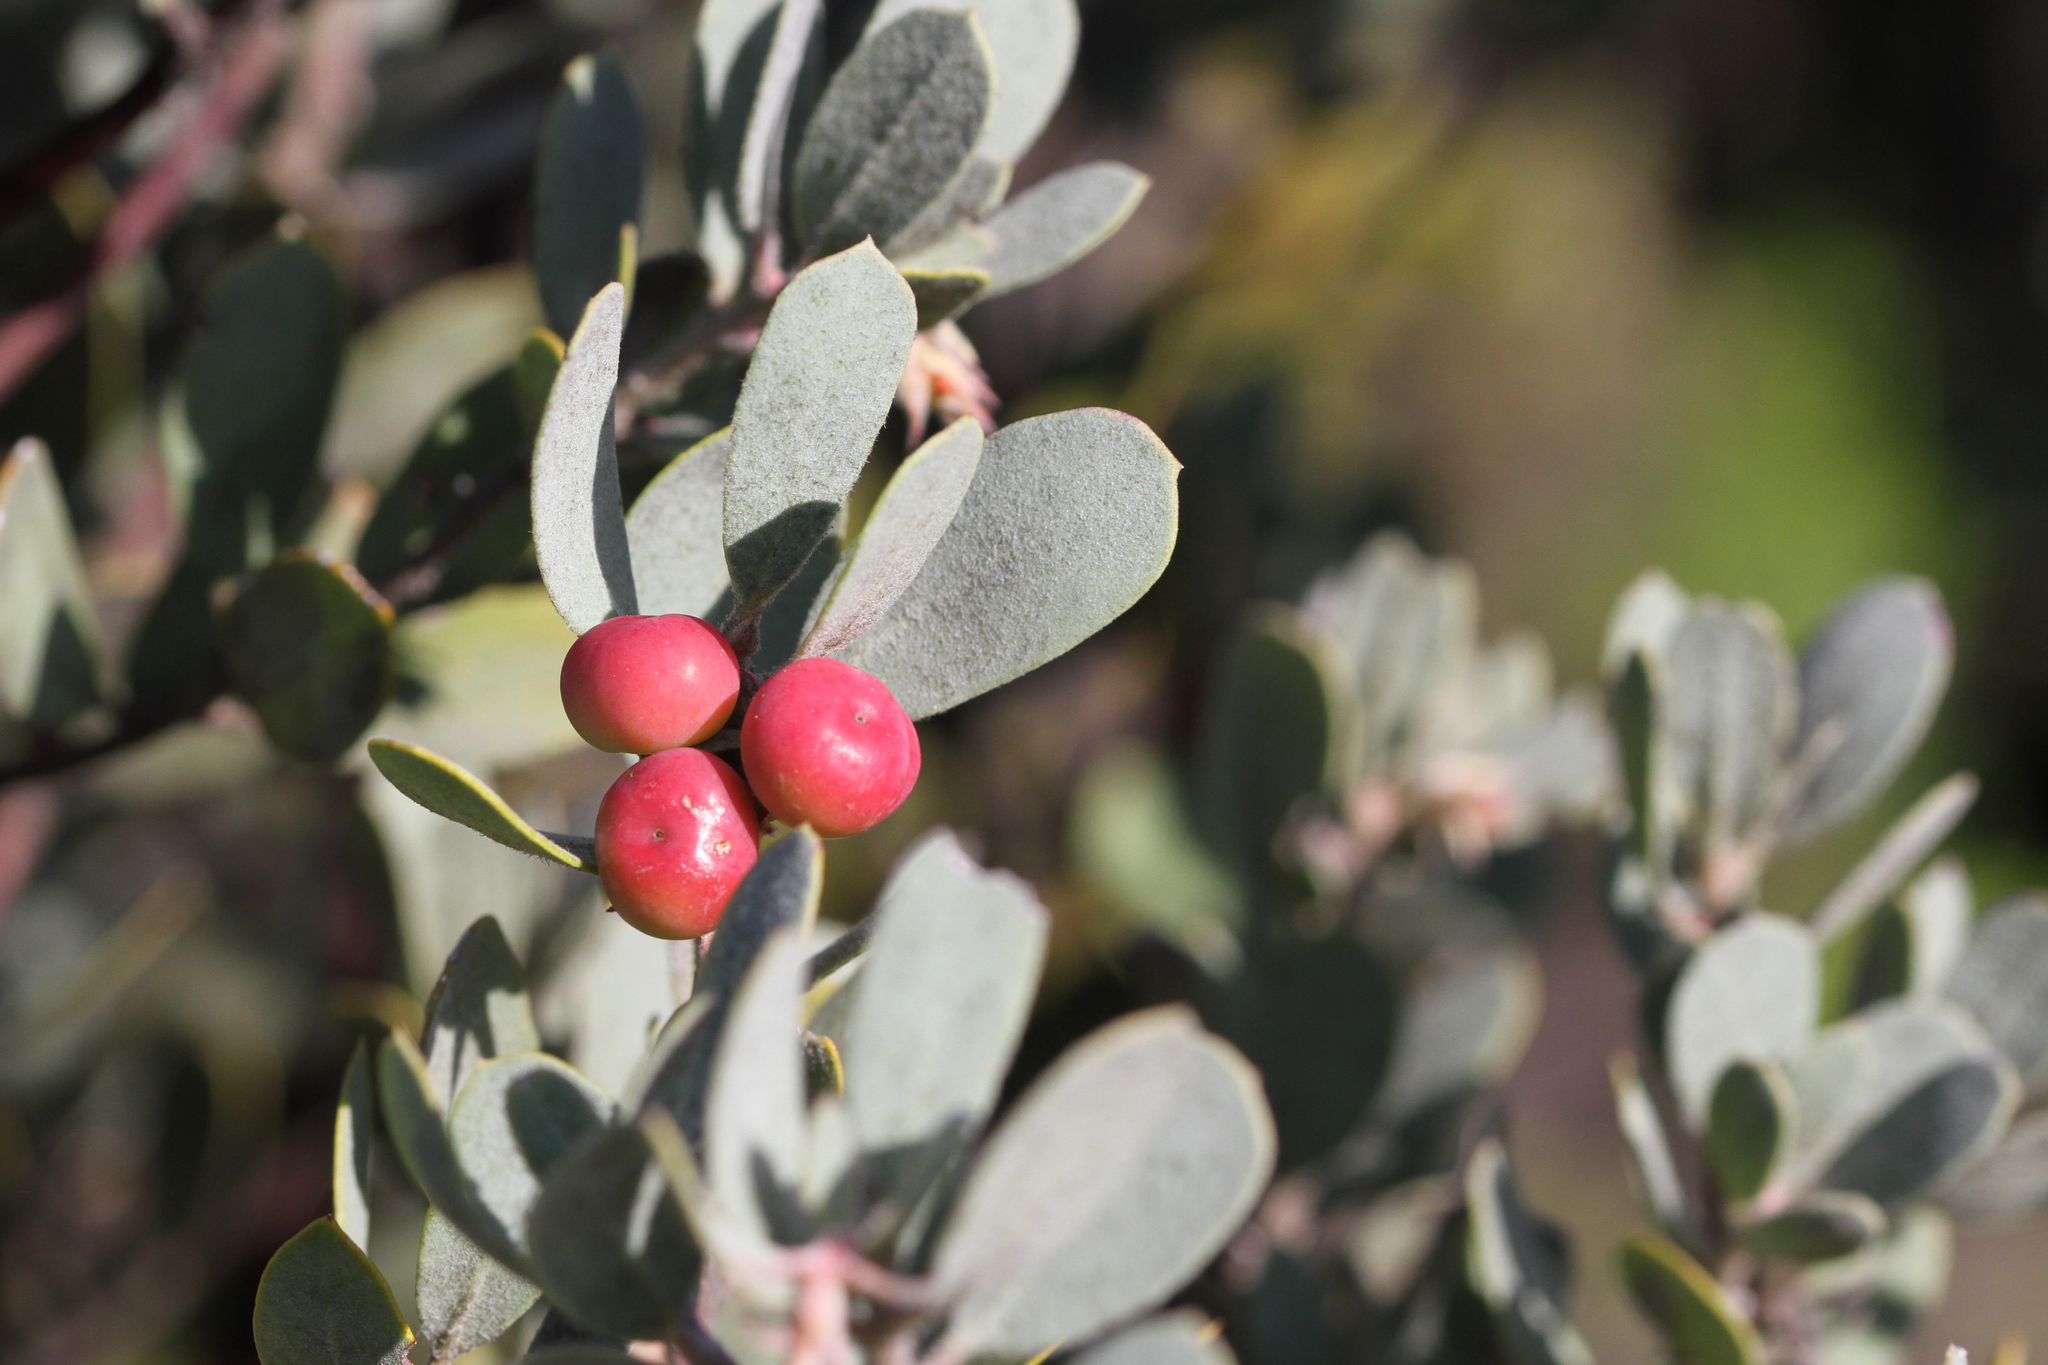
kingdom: Plantae
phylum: Tracheophyta
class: Magnoliopsida
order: Ericales
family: Ericaceae
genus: Arctostaphylos
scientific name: Arctostaphylos silvicola
